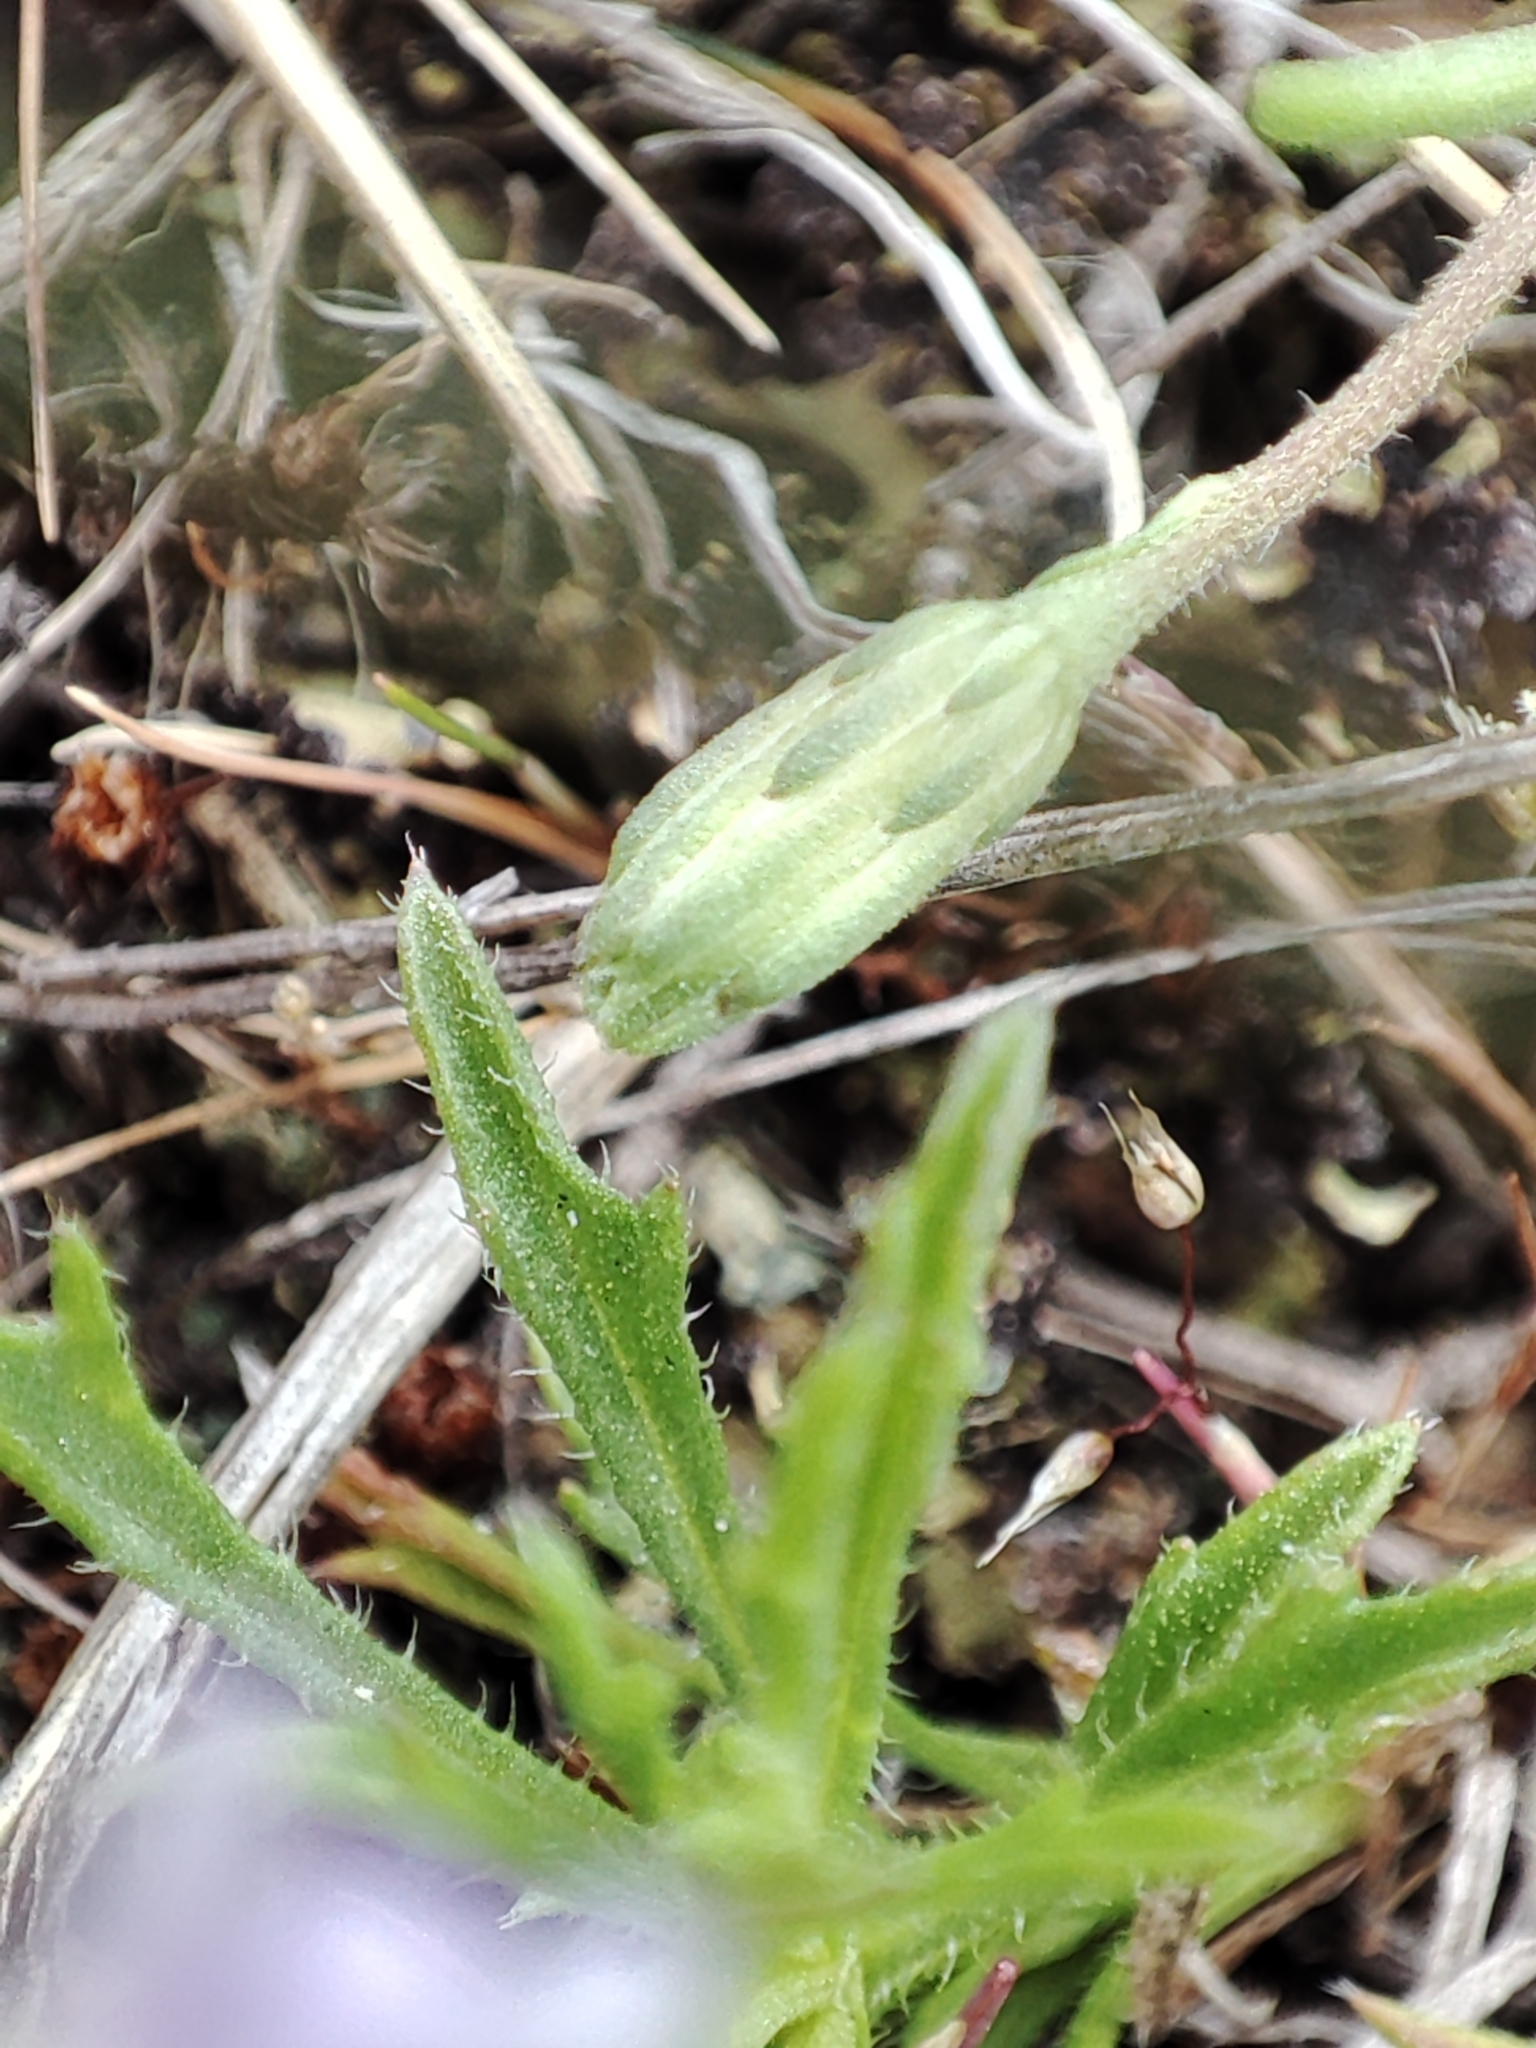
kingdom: Plantae
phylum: Tracheophyta
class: Magnoliopsida
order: Asterales
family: Asteraceae
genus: Vittadinia
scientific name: Vittadinia muelleri
